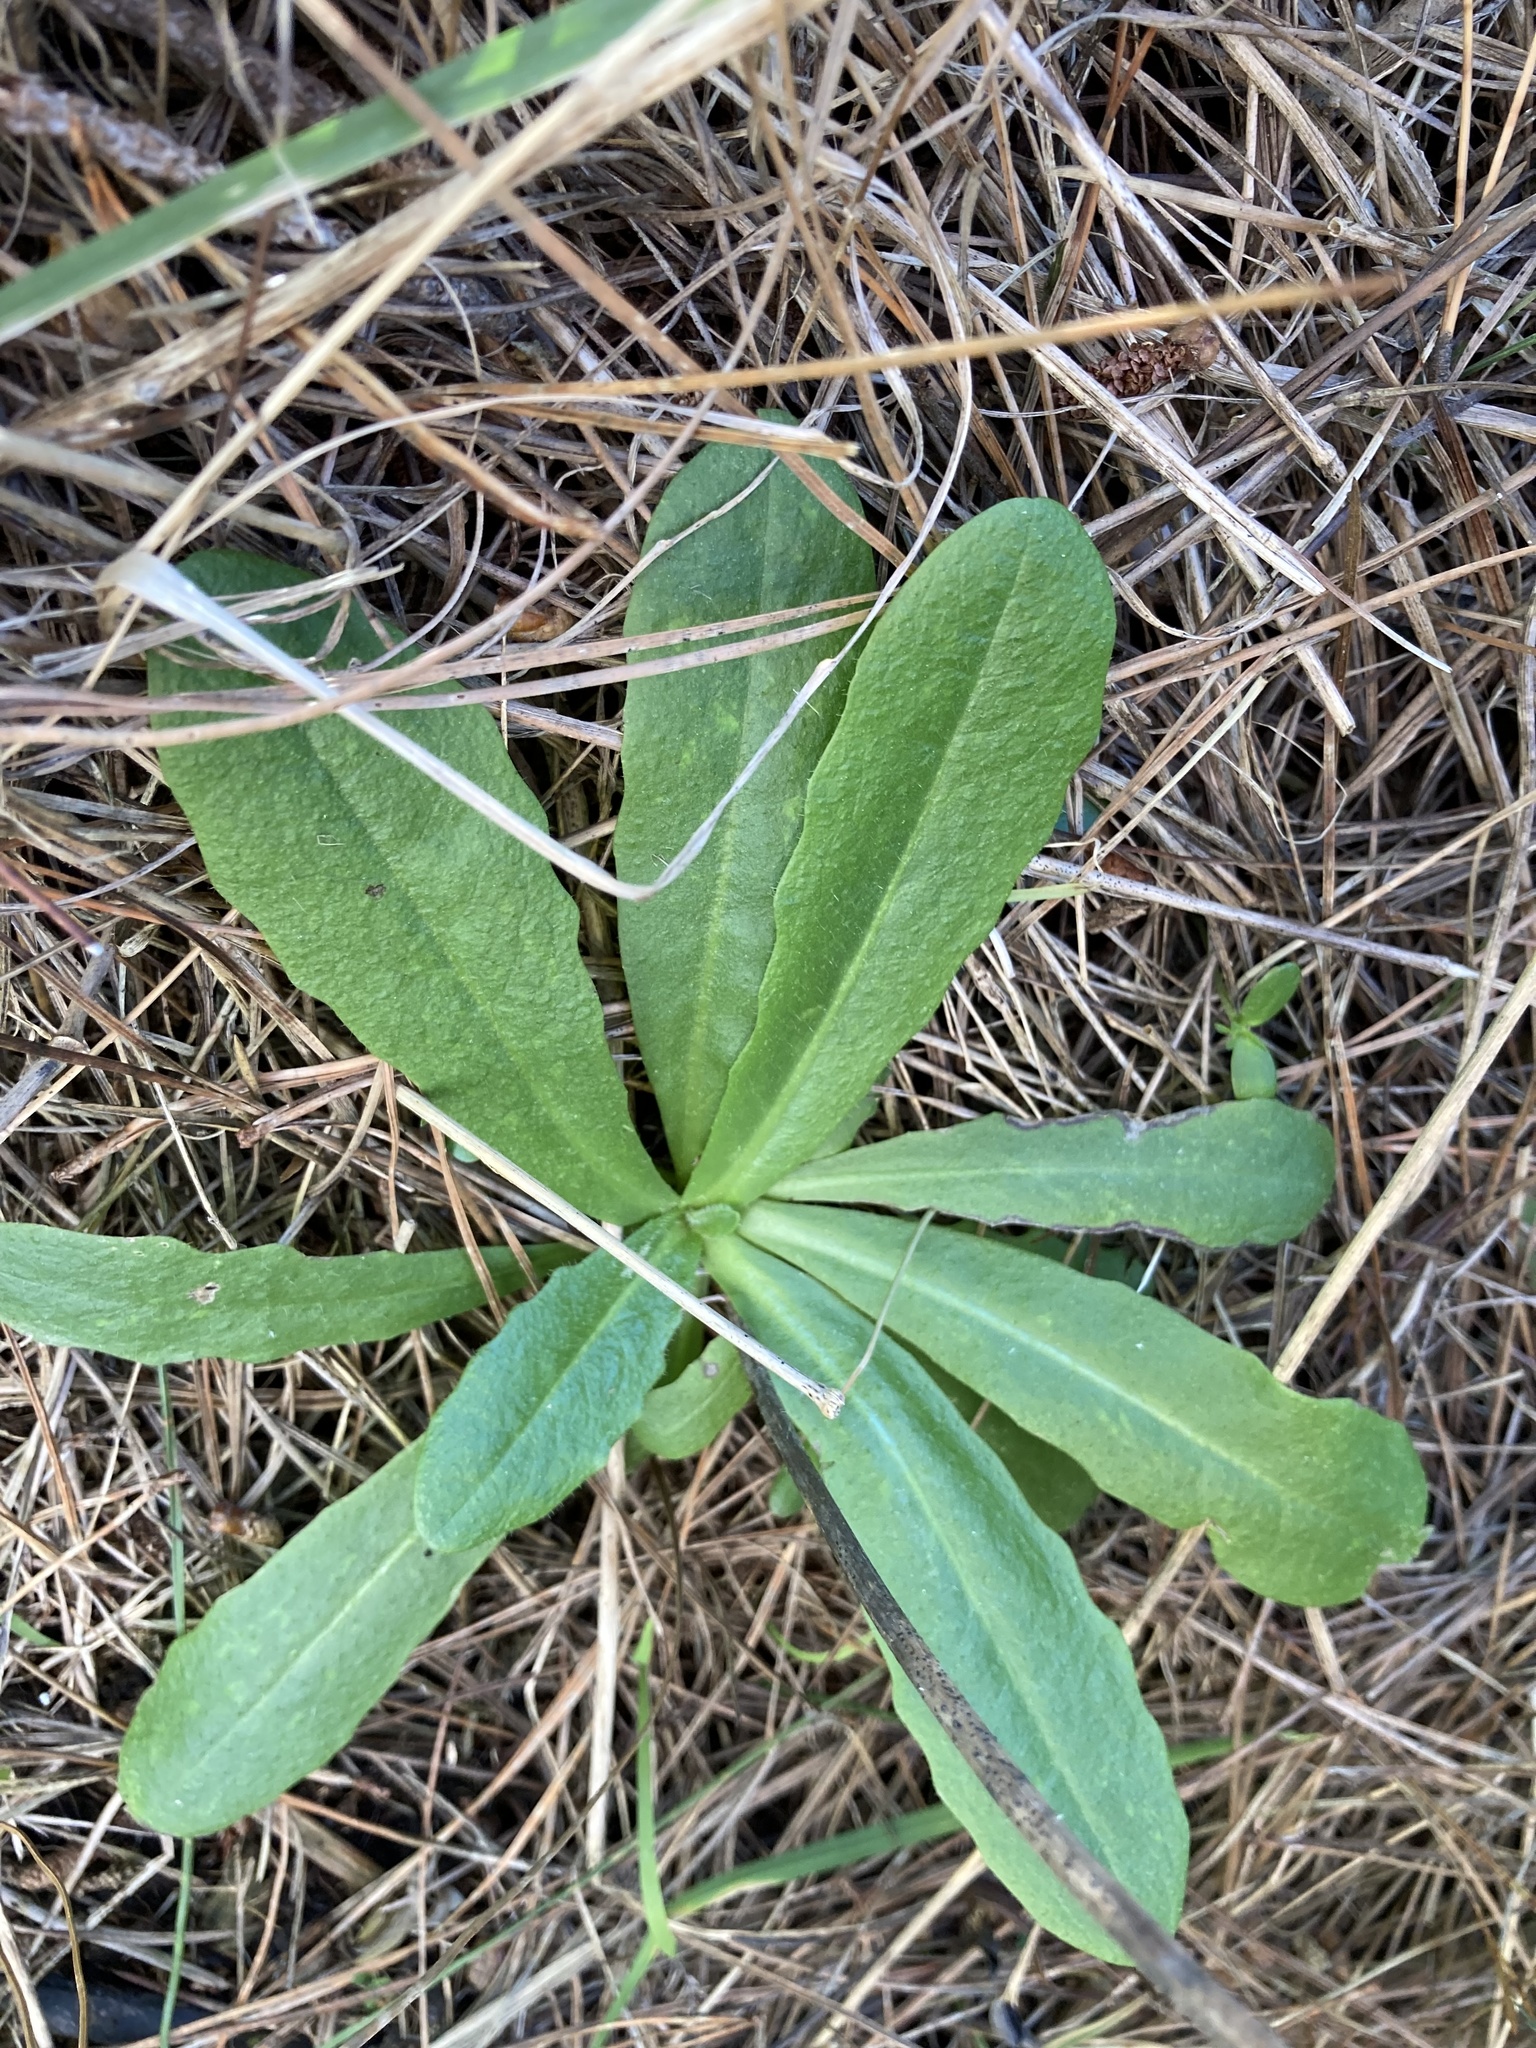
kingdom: Plantae
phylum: Tracheophyta
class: Magnoliopsida
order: Asterales
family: Asteraceae
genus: Hypochaeris
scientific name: Hypochaeris radicata
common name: Flatweed
